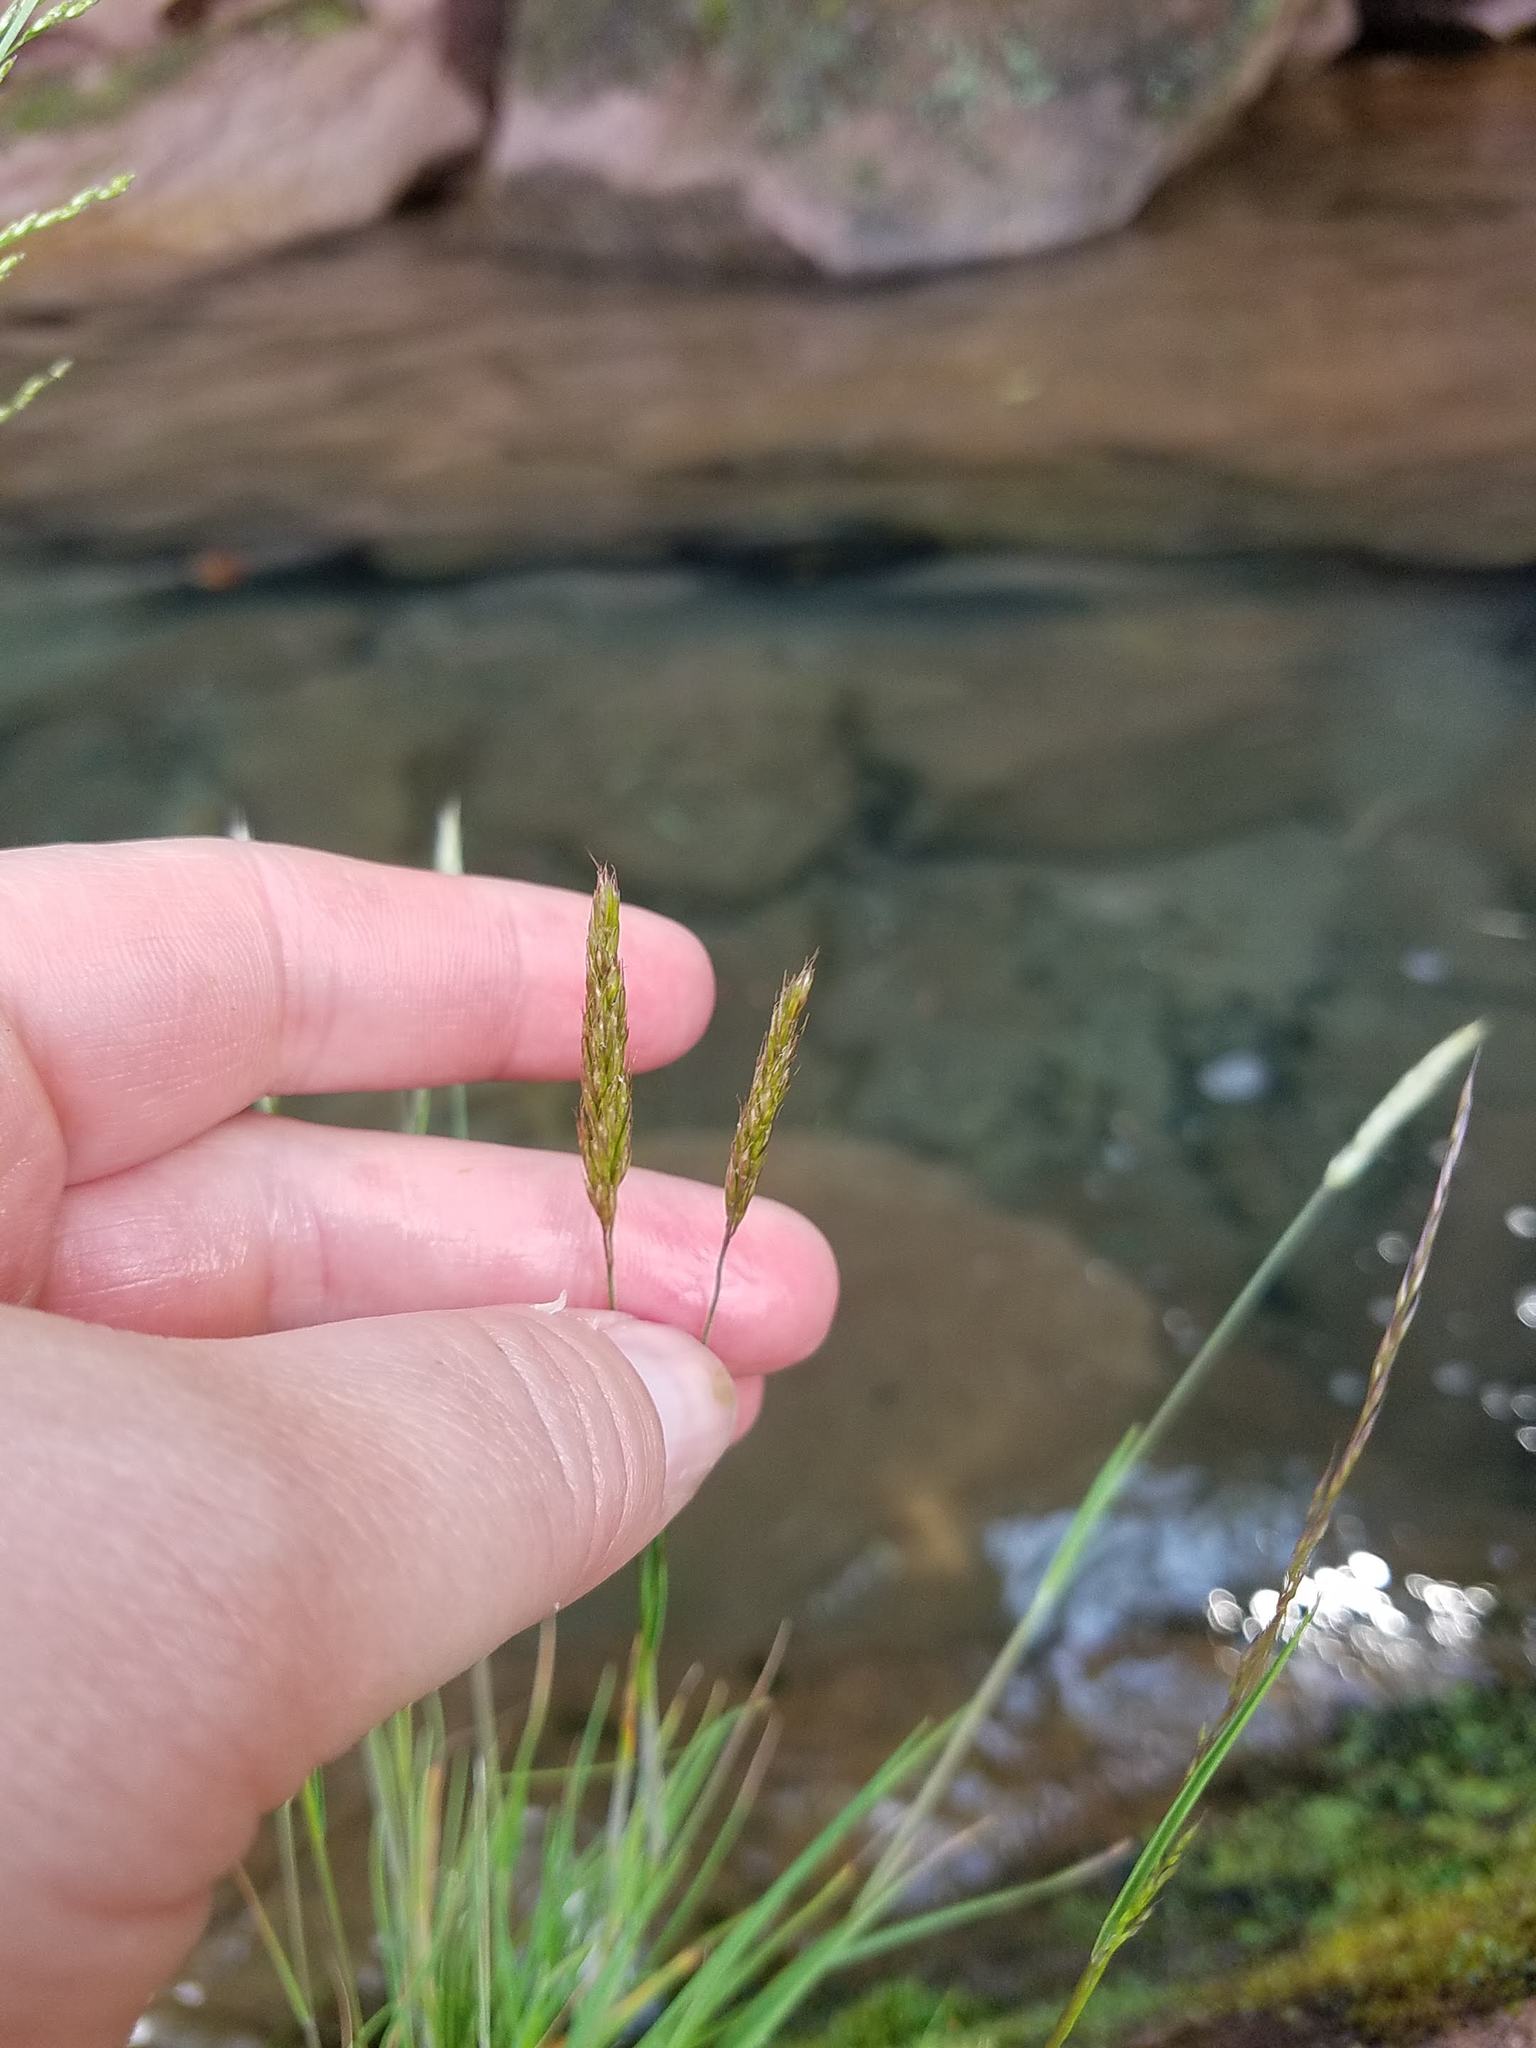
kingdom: Plantae
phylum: Tracheophyta
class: Liliopsida
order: Poales
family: Poaceae
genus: Koeleria
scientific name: Koeleria spicata
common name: Mountain trisetum
